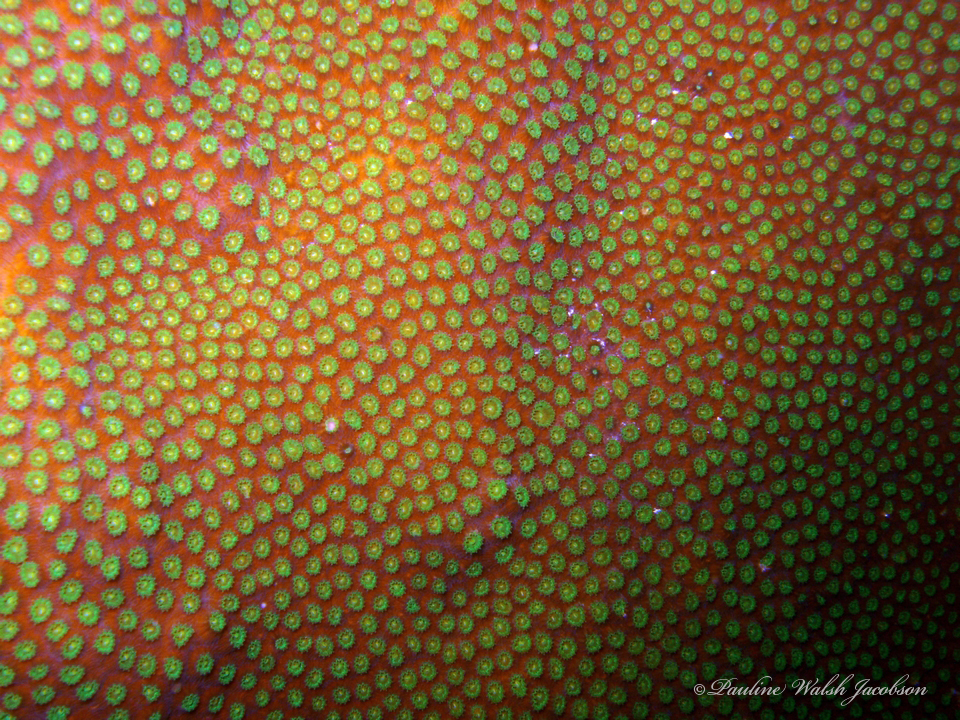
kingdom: Animalia
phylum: Cnidaria
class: Anthozoa
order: Scleractinia
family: Merulinidae
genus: Orbicella
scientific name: Orbicella faveolata
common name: Mountainous star coral
